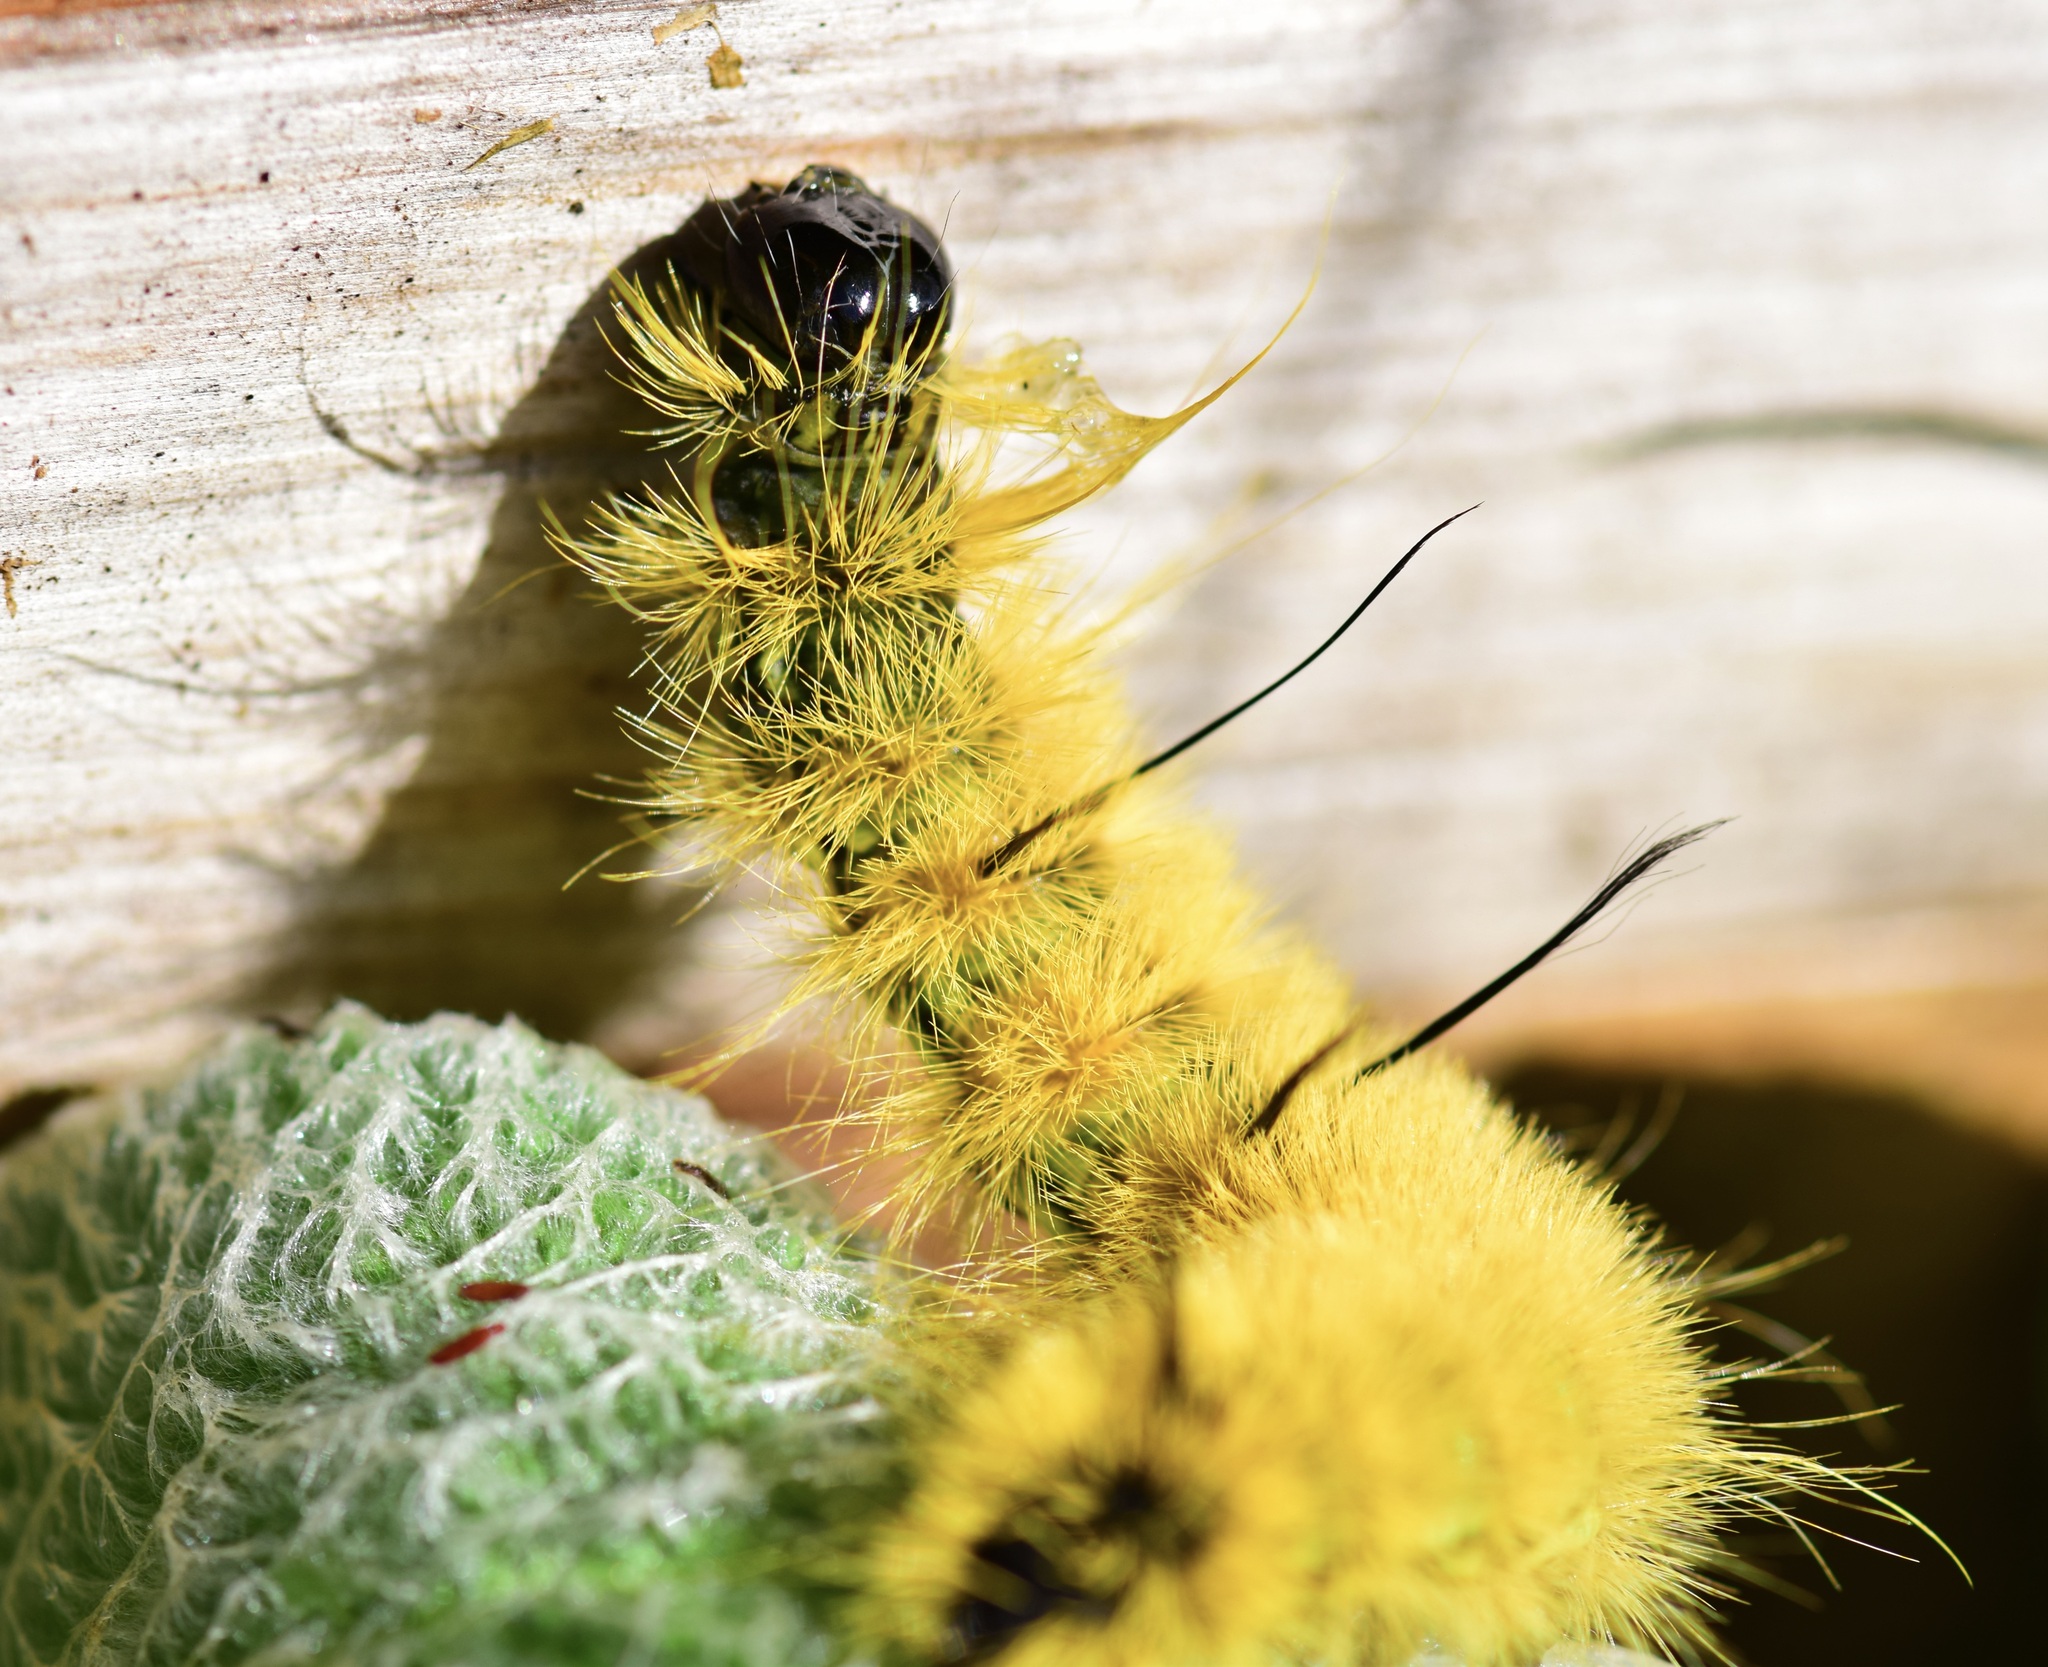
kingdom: Animalia
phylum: Arthropoda
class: Insecta
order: Lepidoptera
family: Noctuidae
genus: Acronicta
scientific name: Acronicta americana
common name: American dagger
